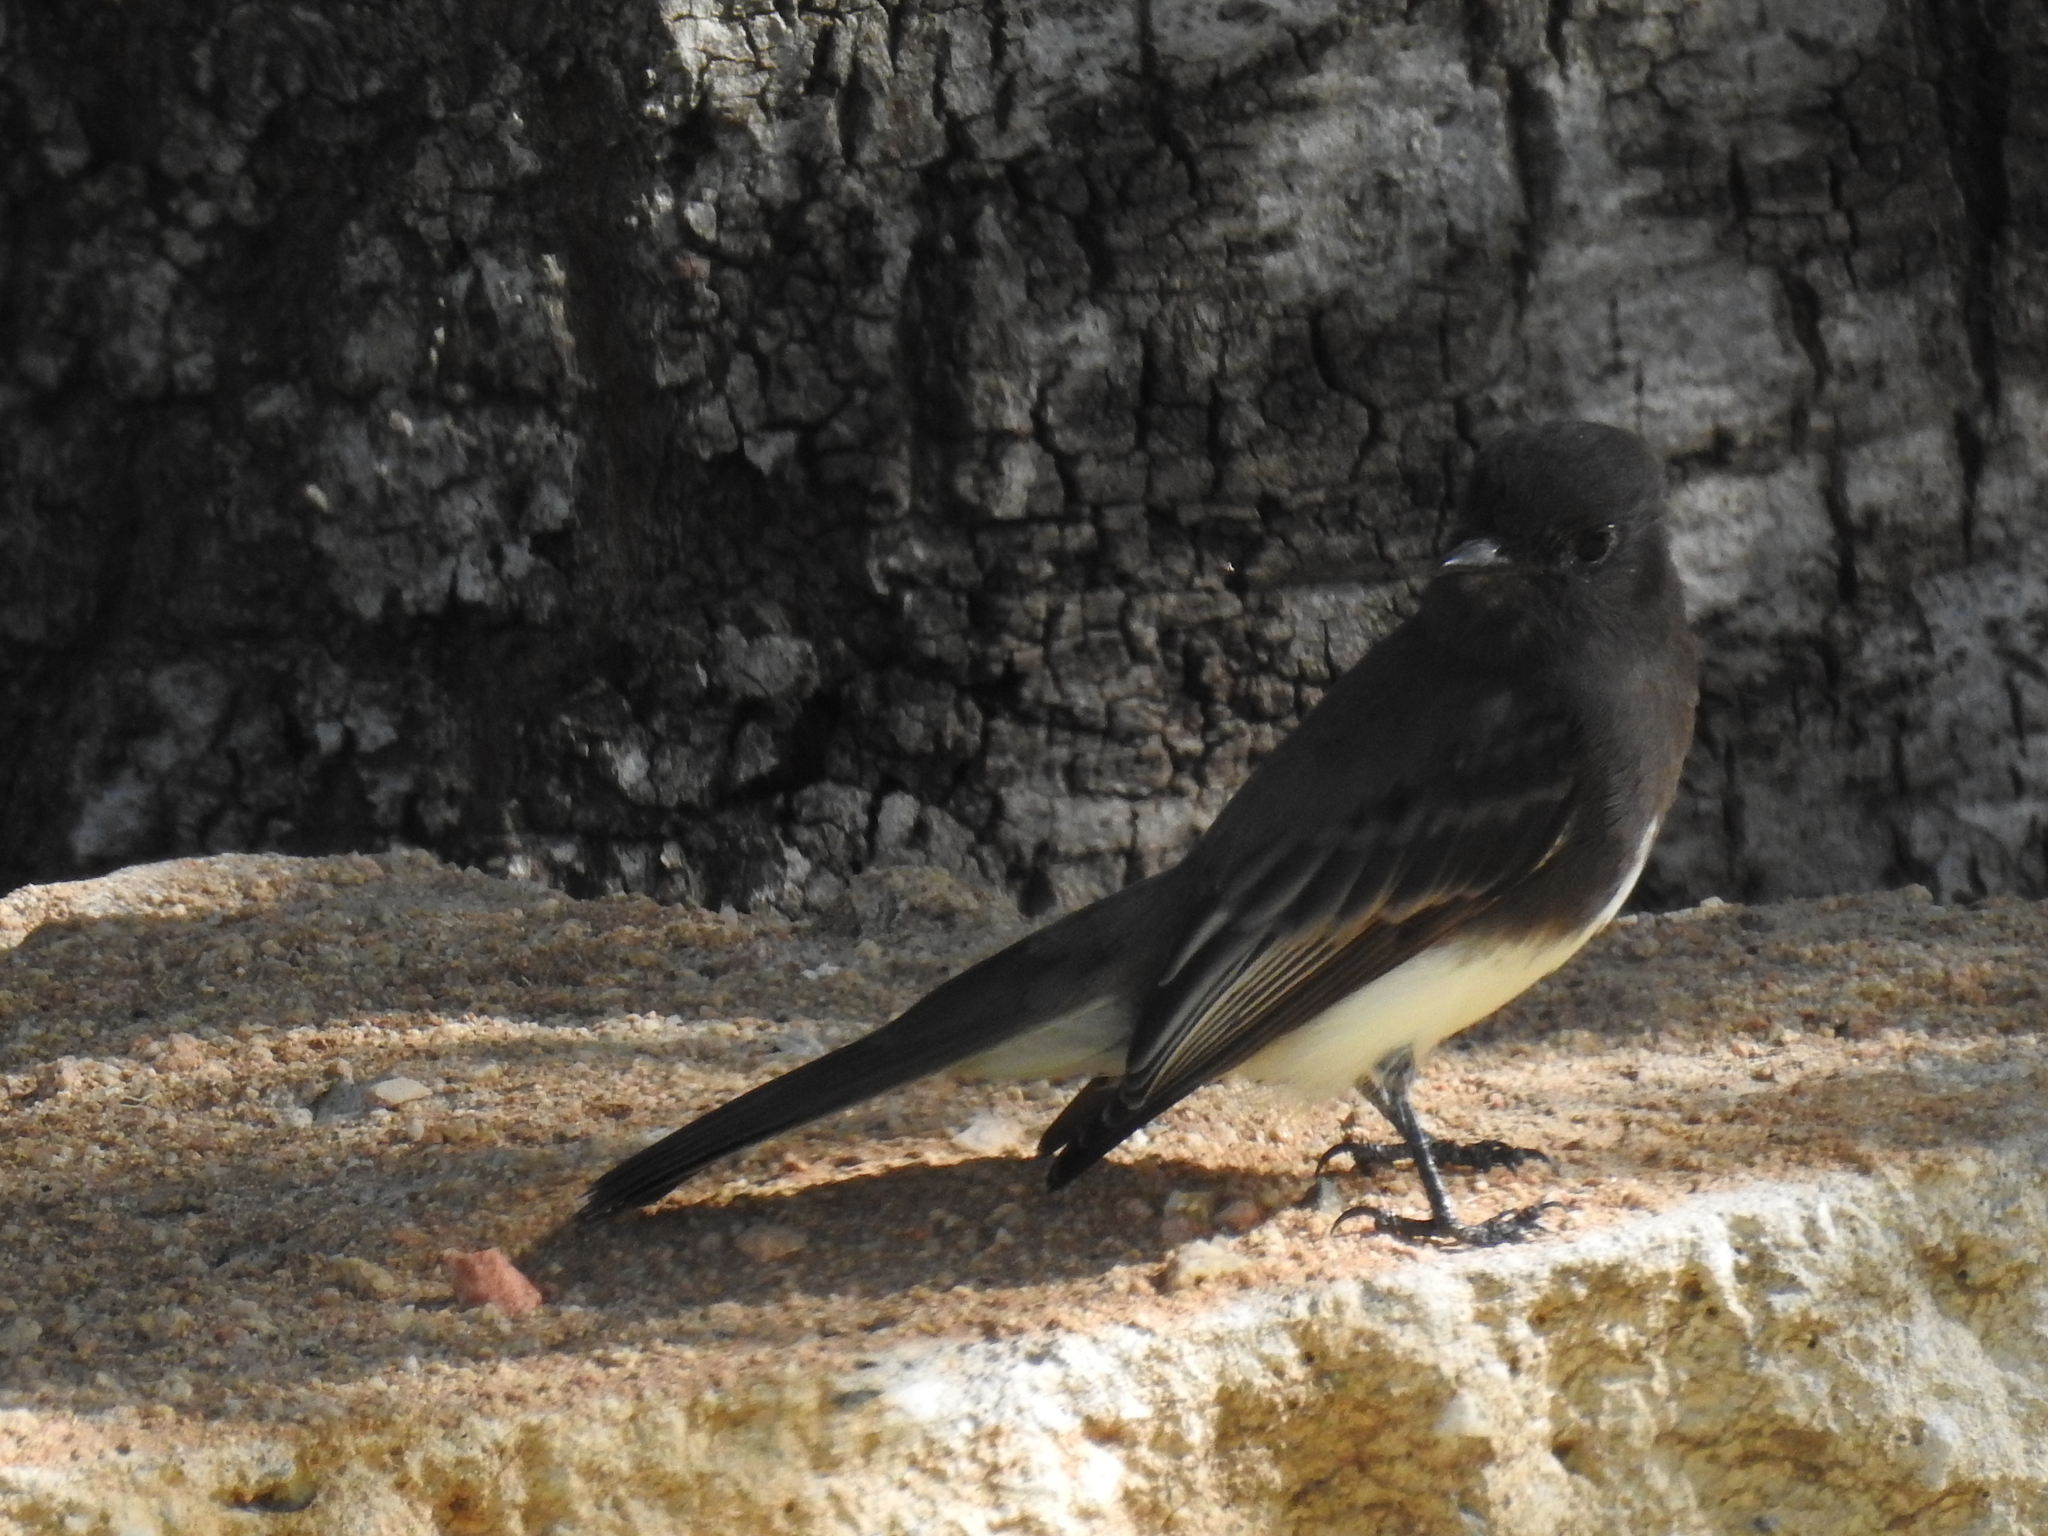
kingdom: Animalia
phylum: Chordata
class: Aves
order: Passeriformes
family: Tyrannidae
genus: Sayornis
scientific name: Sayornis nigricans
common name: Black phoebe
